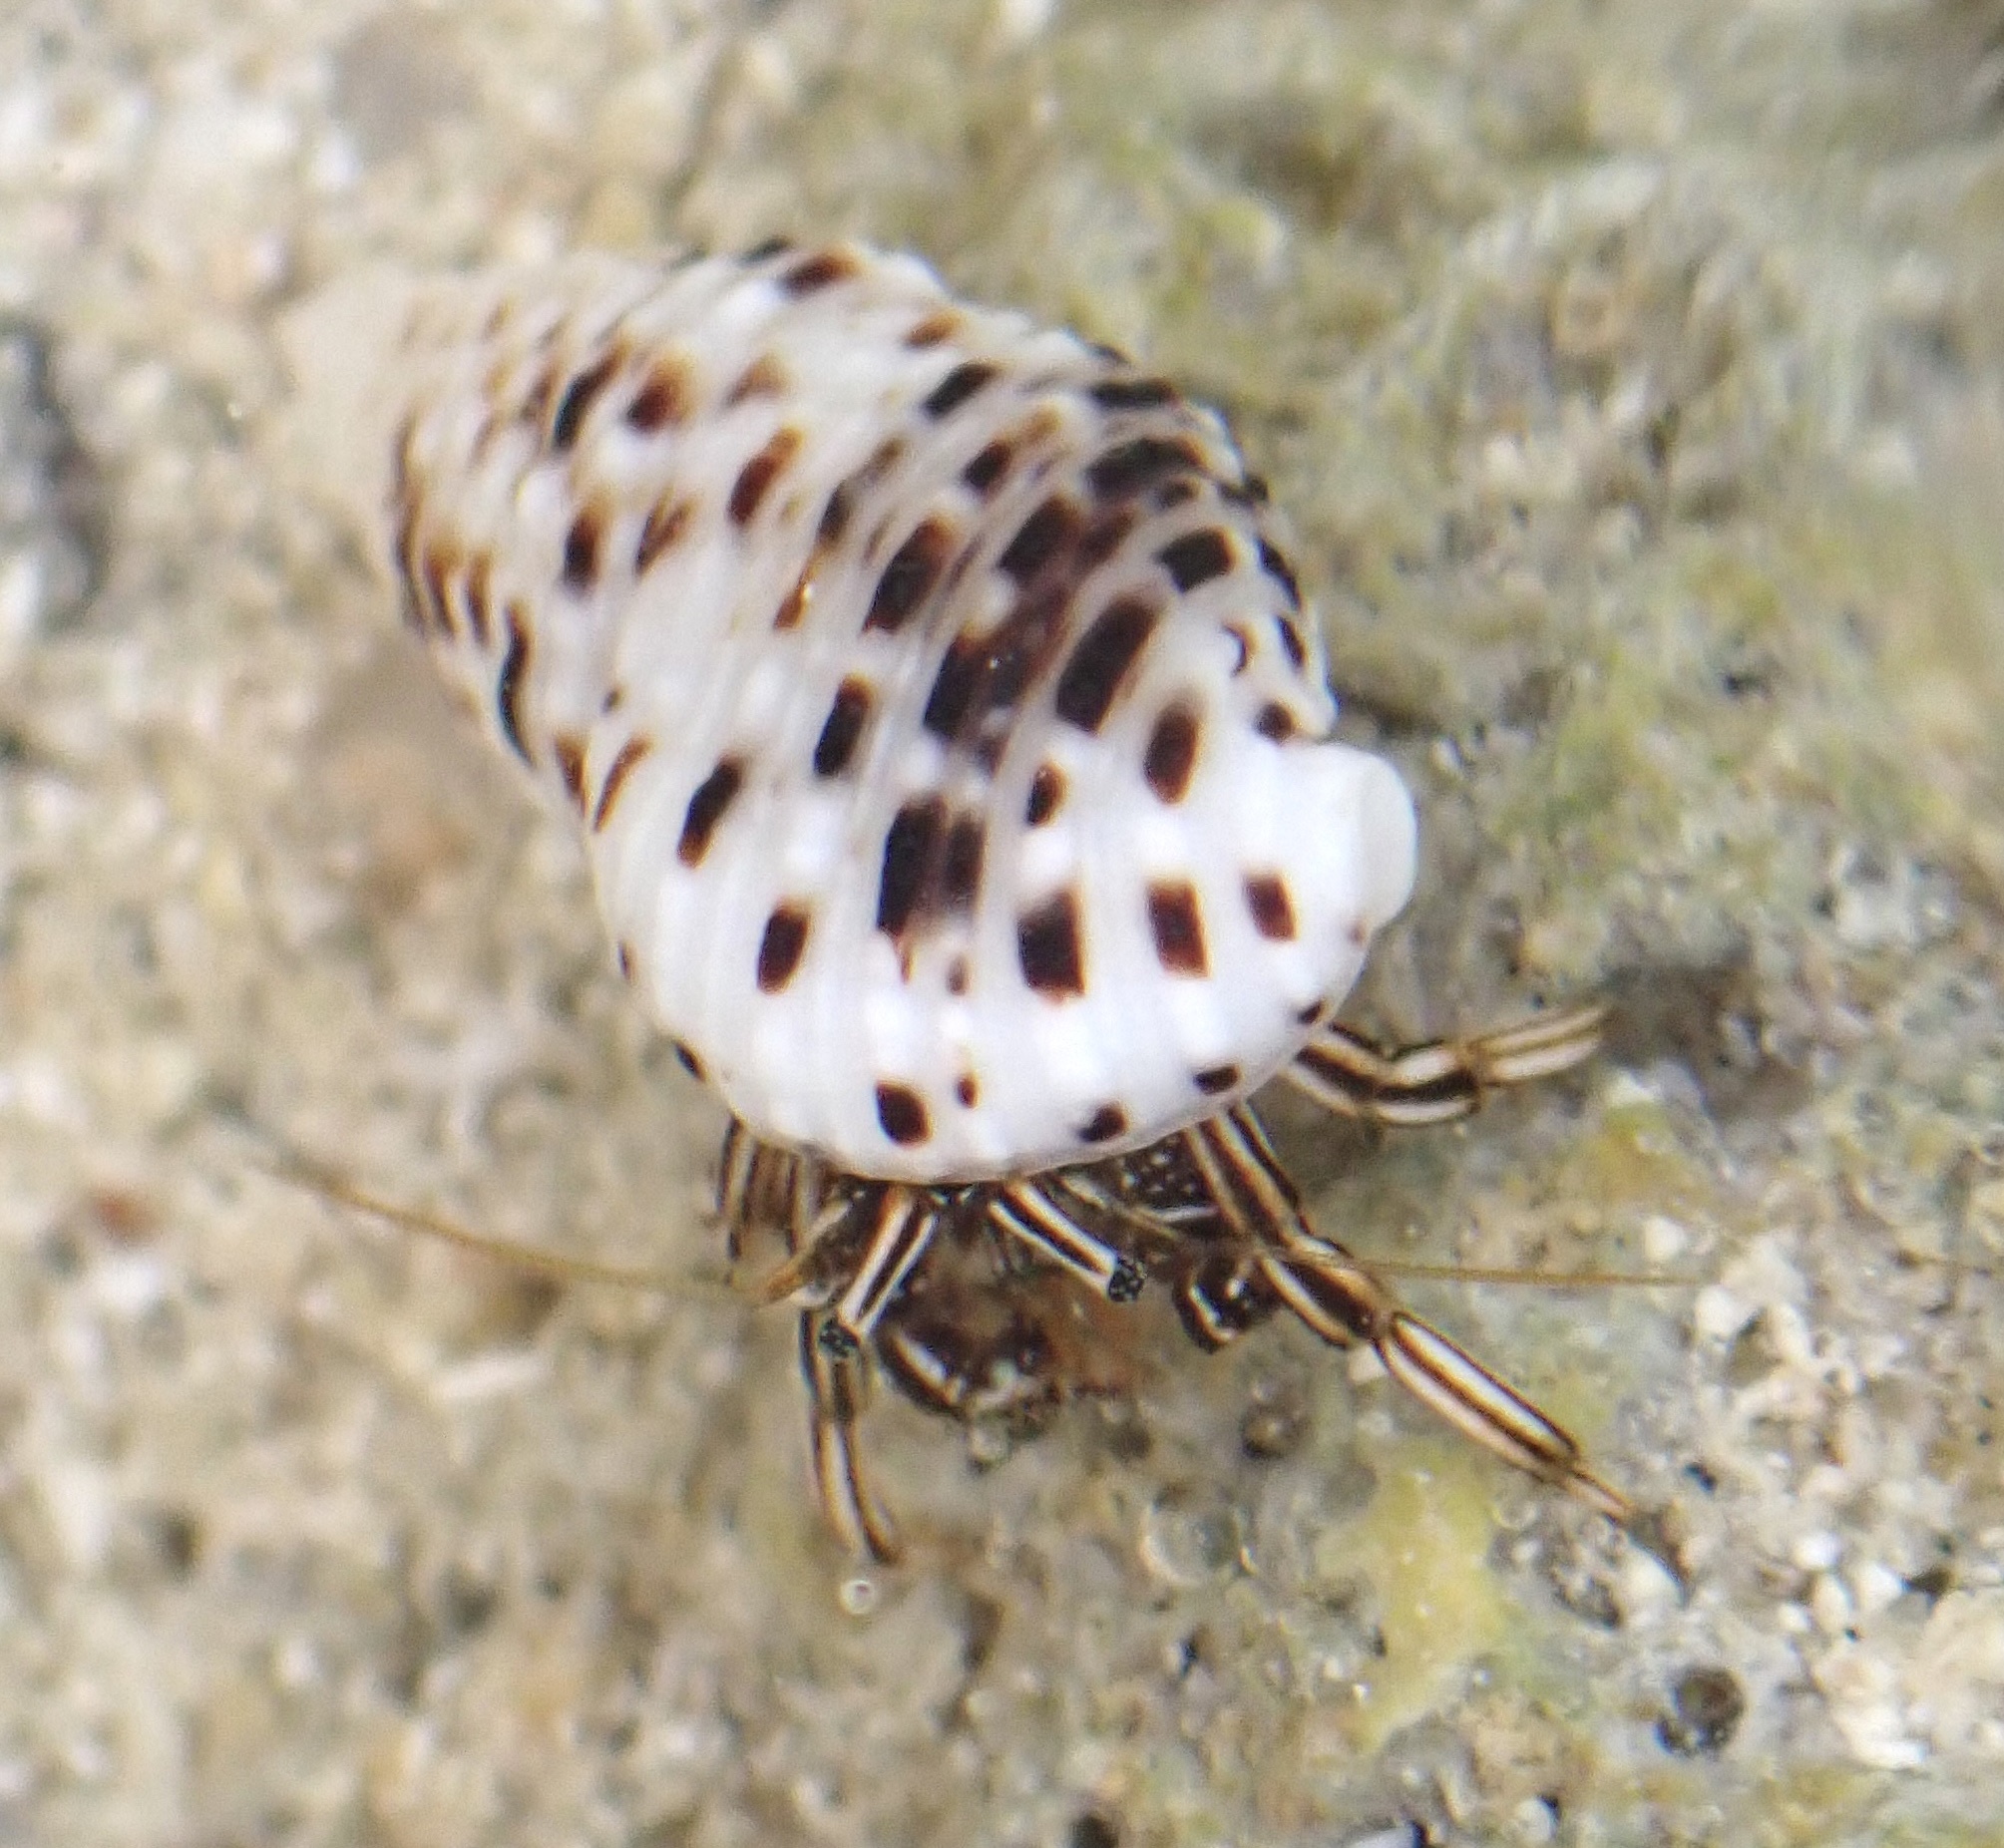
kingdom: Animalia
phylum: Arthropoda
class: Malacostraca
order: Decapoda
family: Diogenidae
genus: Clibanarius
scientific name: Clibanarius signatus
